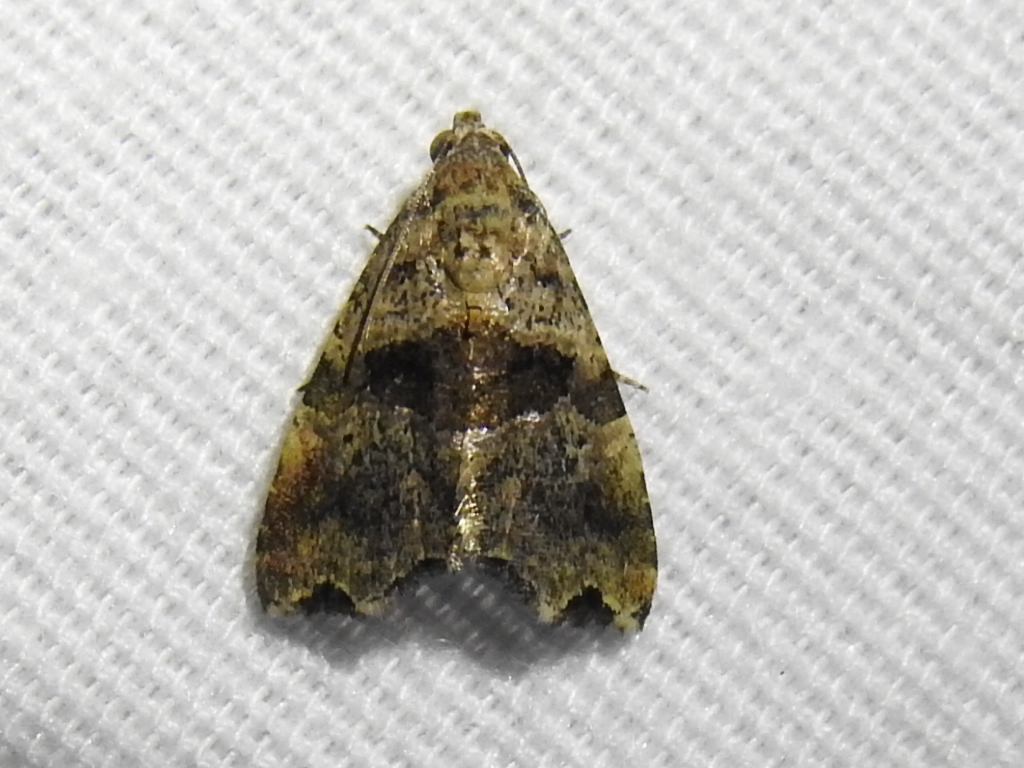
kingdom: Animalia
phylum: Arthropoda
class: Insecta
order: Lepidoptera
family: Noctuidae
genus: Cobubatha
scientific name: Cobubatha metaspilaris
